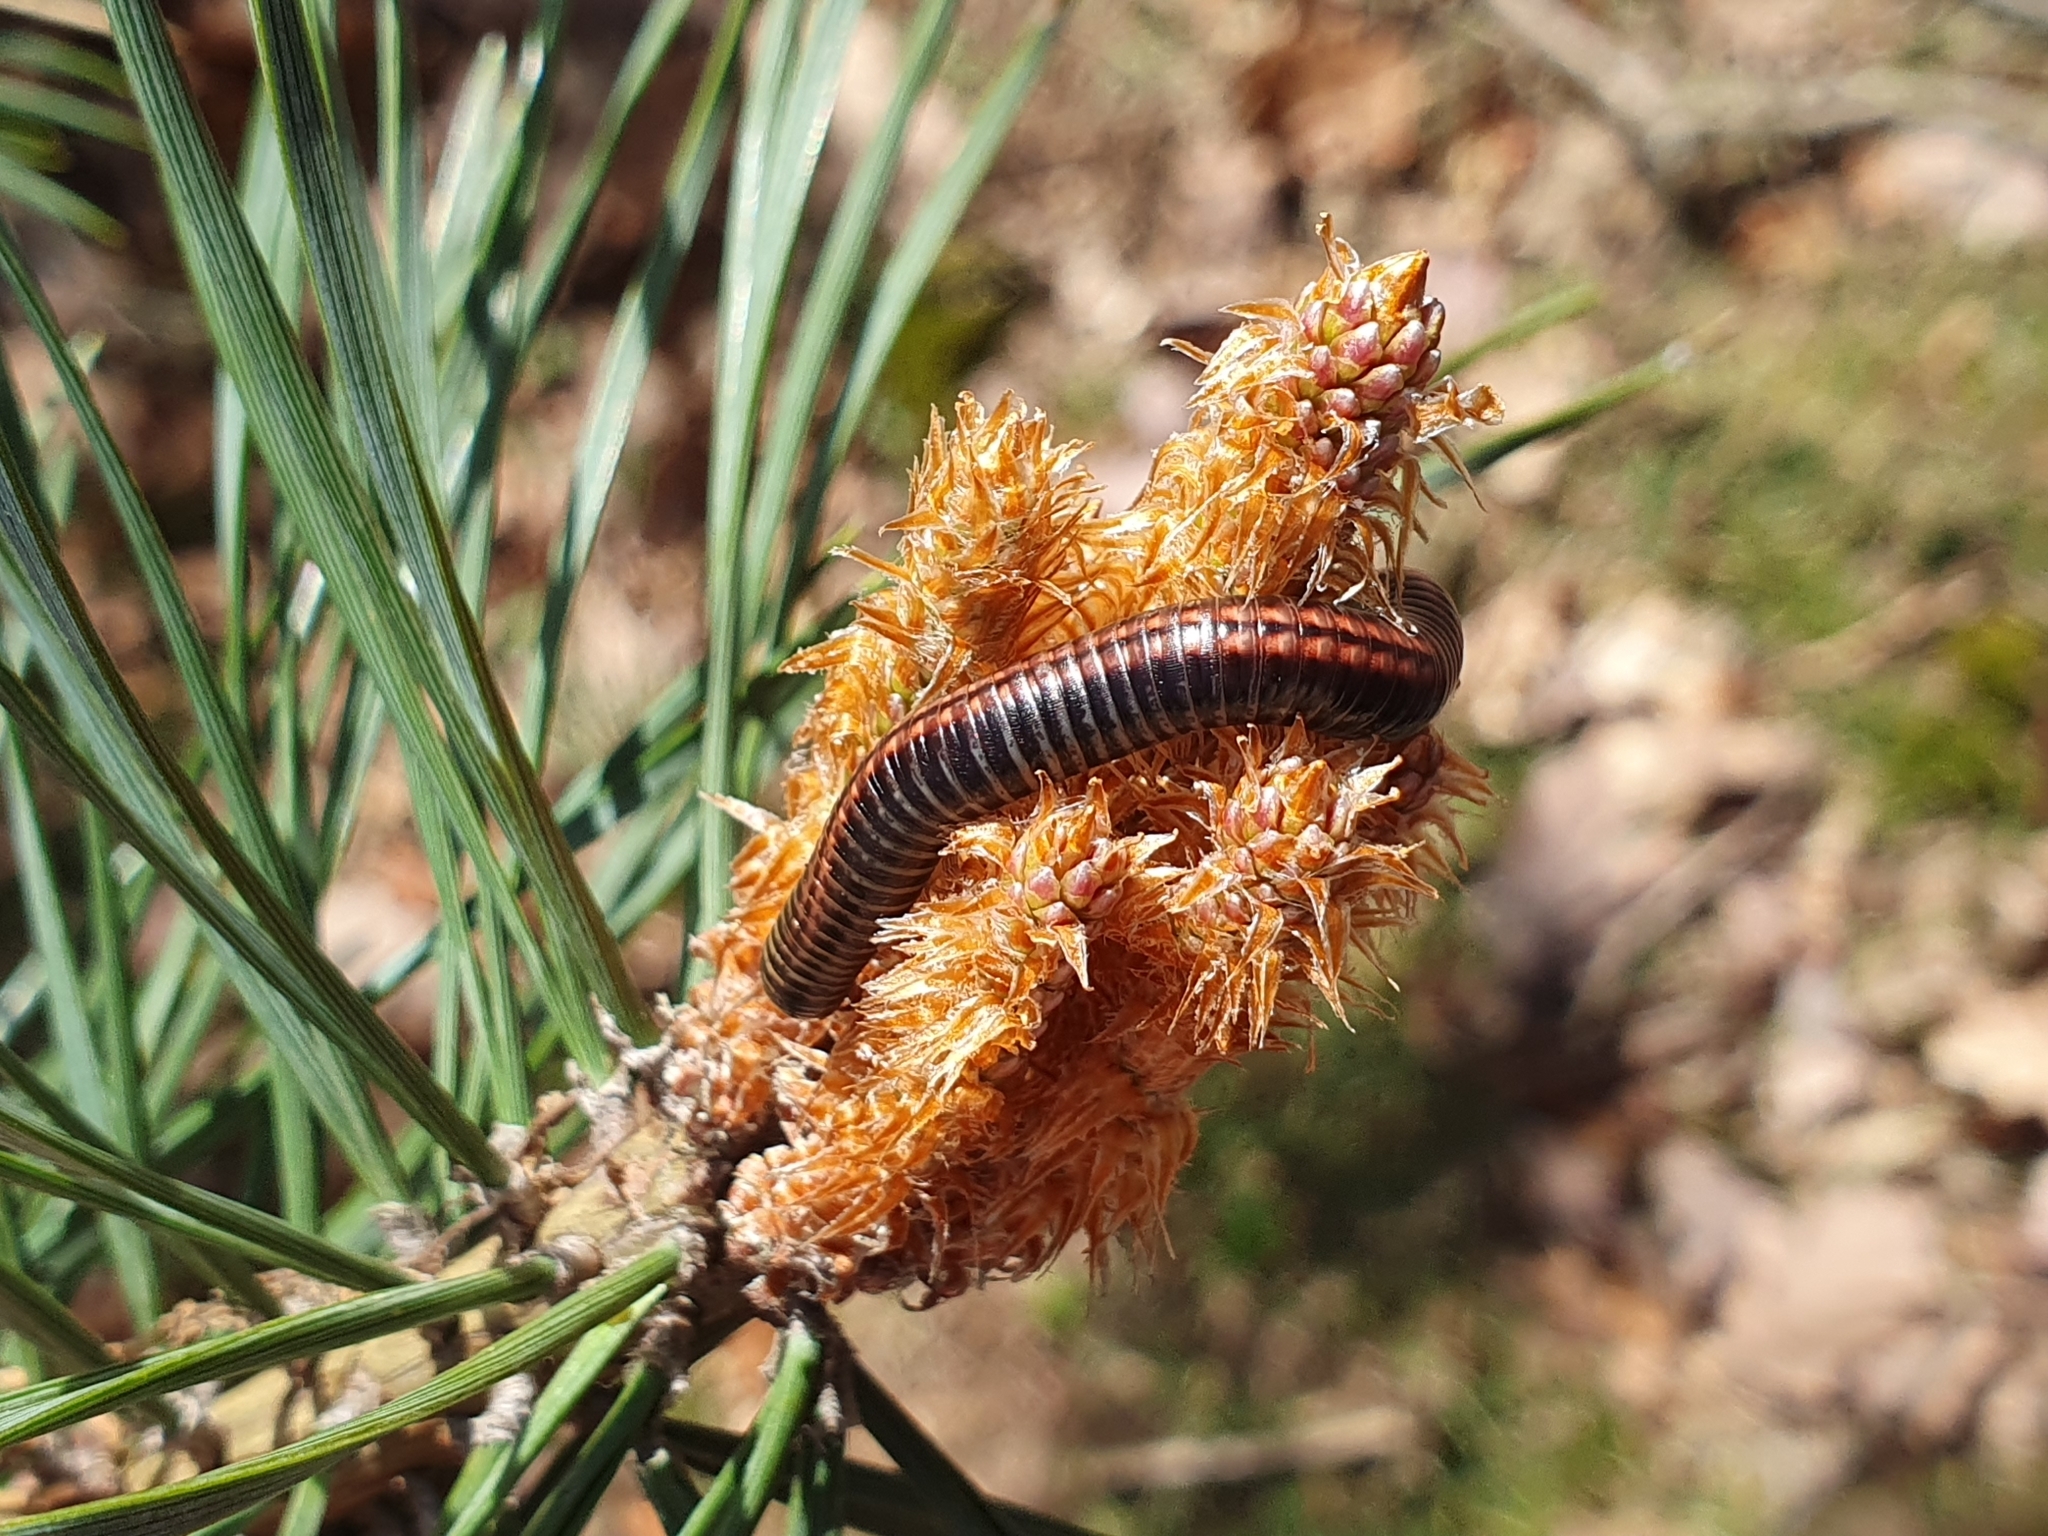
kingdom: Animalia
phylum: Arthropoda
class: Diplopoda
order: Julida
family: Julidae
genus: Ommatoiulus
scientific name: Ommatoiulus sabulosus
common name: Striped millipede
